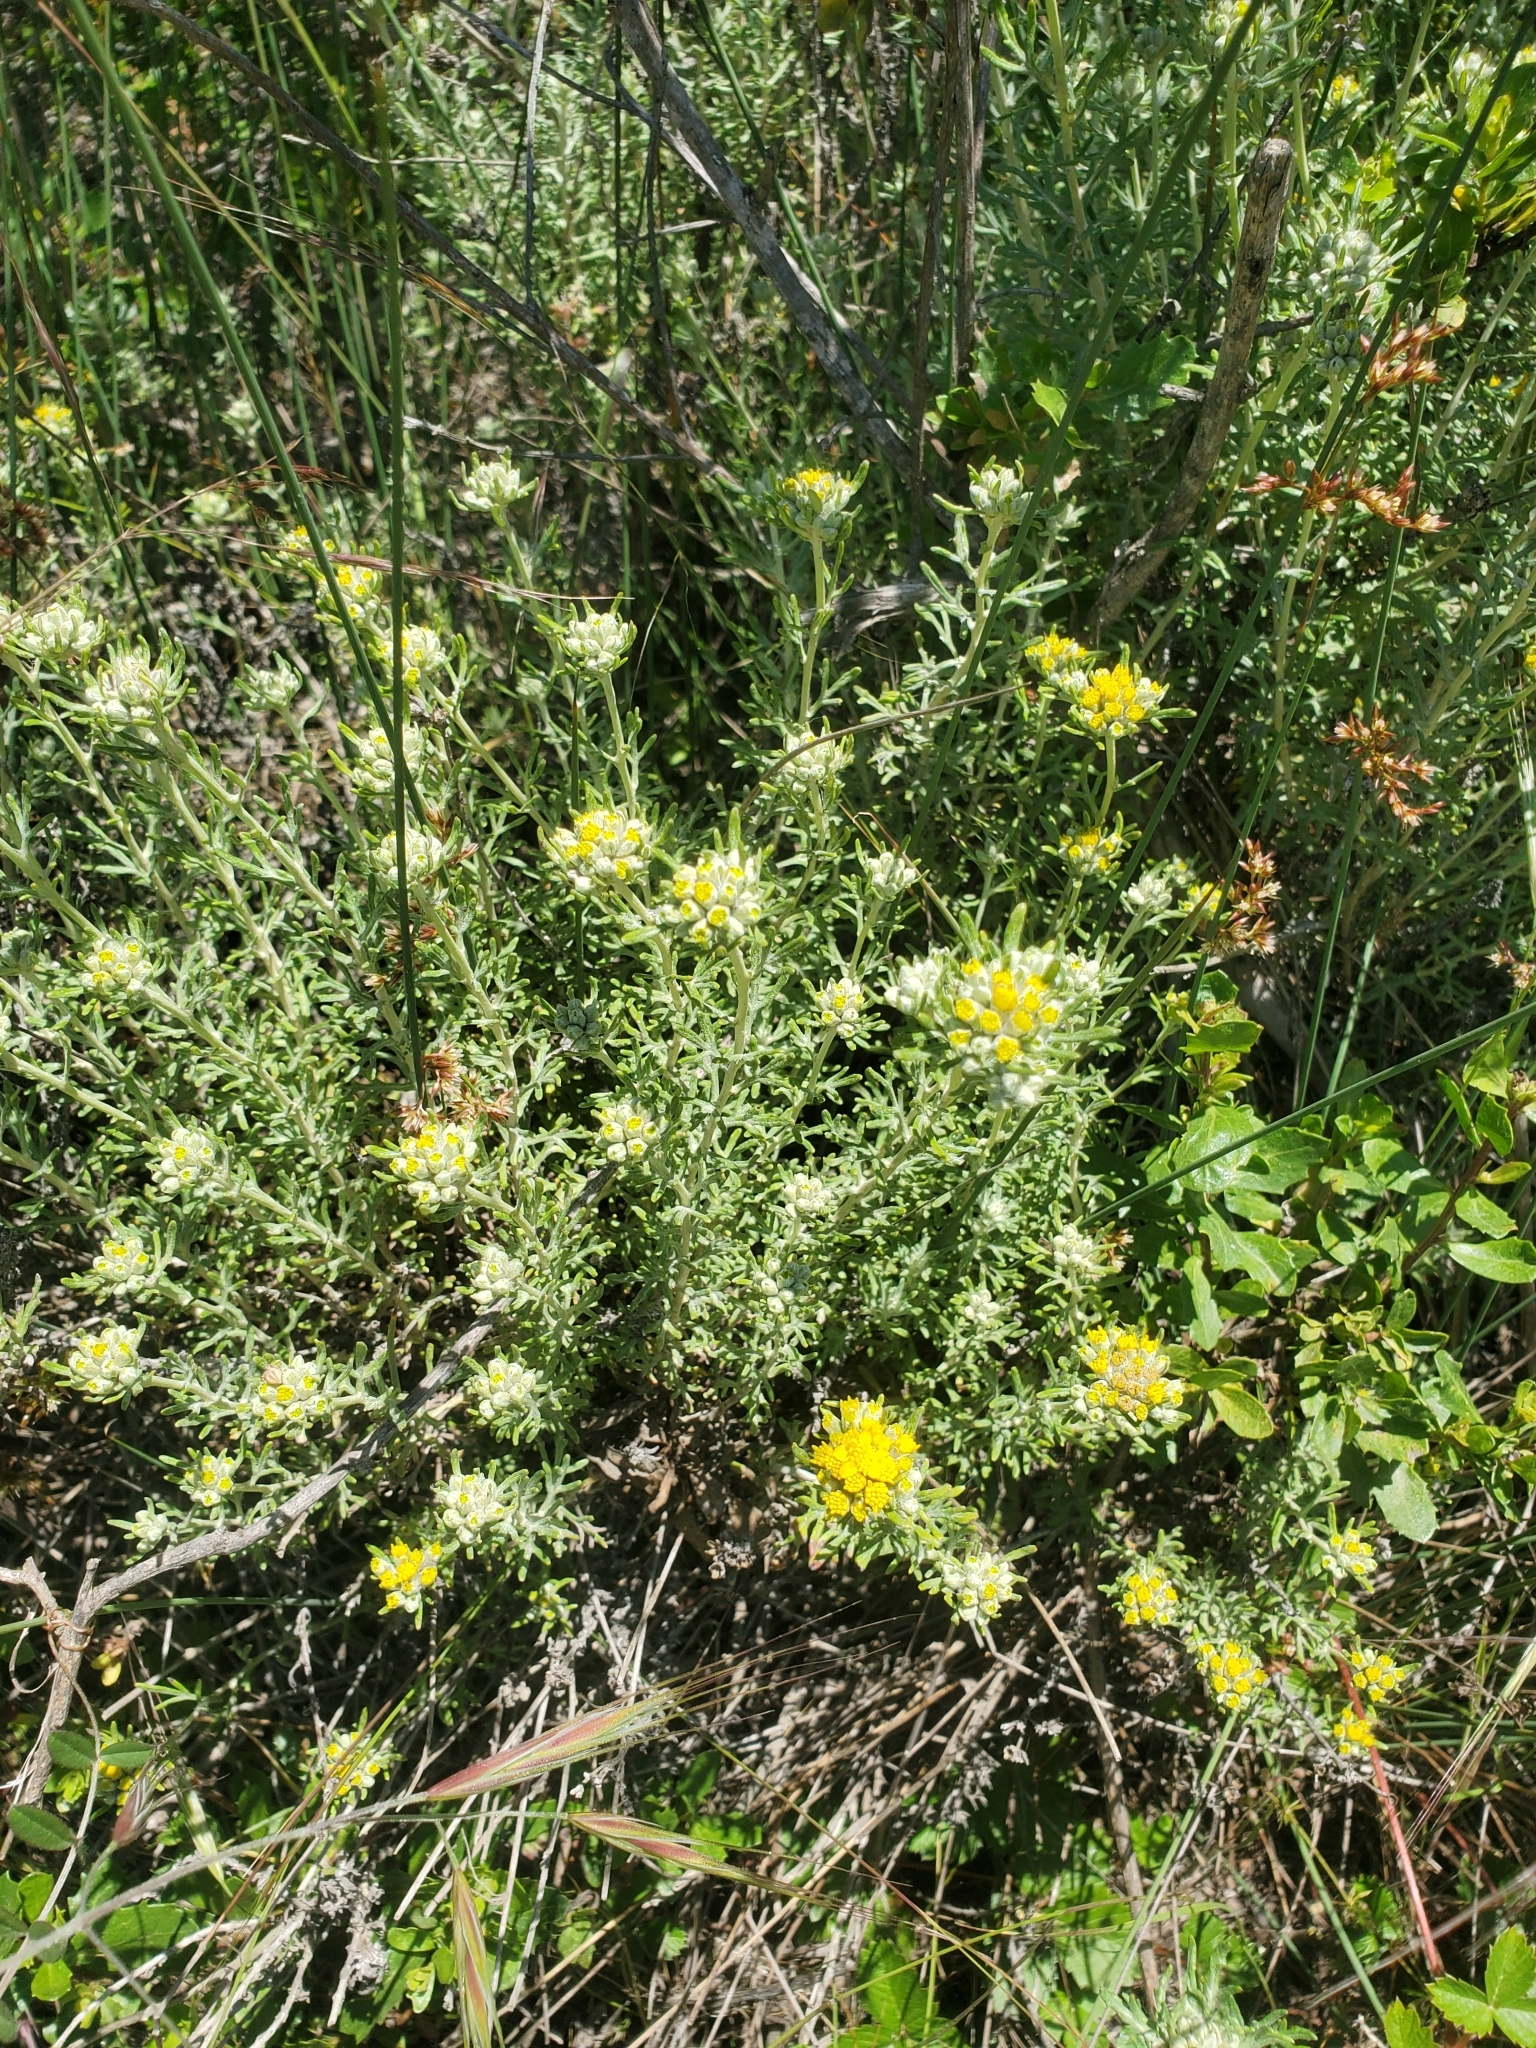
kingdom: Plantae
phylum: Tracheophyta
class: Magnoliopsida
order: Asterales
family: Asteraceae
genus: Eriophyllum
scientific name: Eriophyllum staechadifolium
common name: Lizardtail
